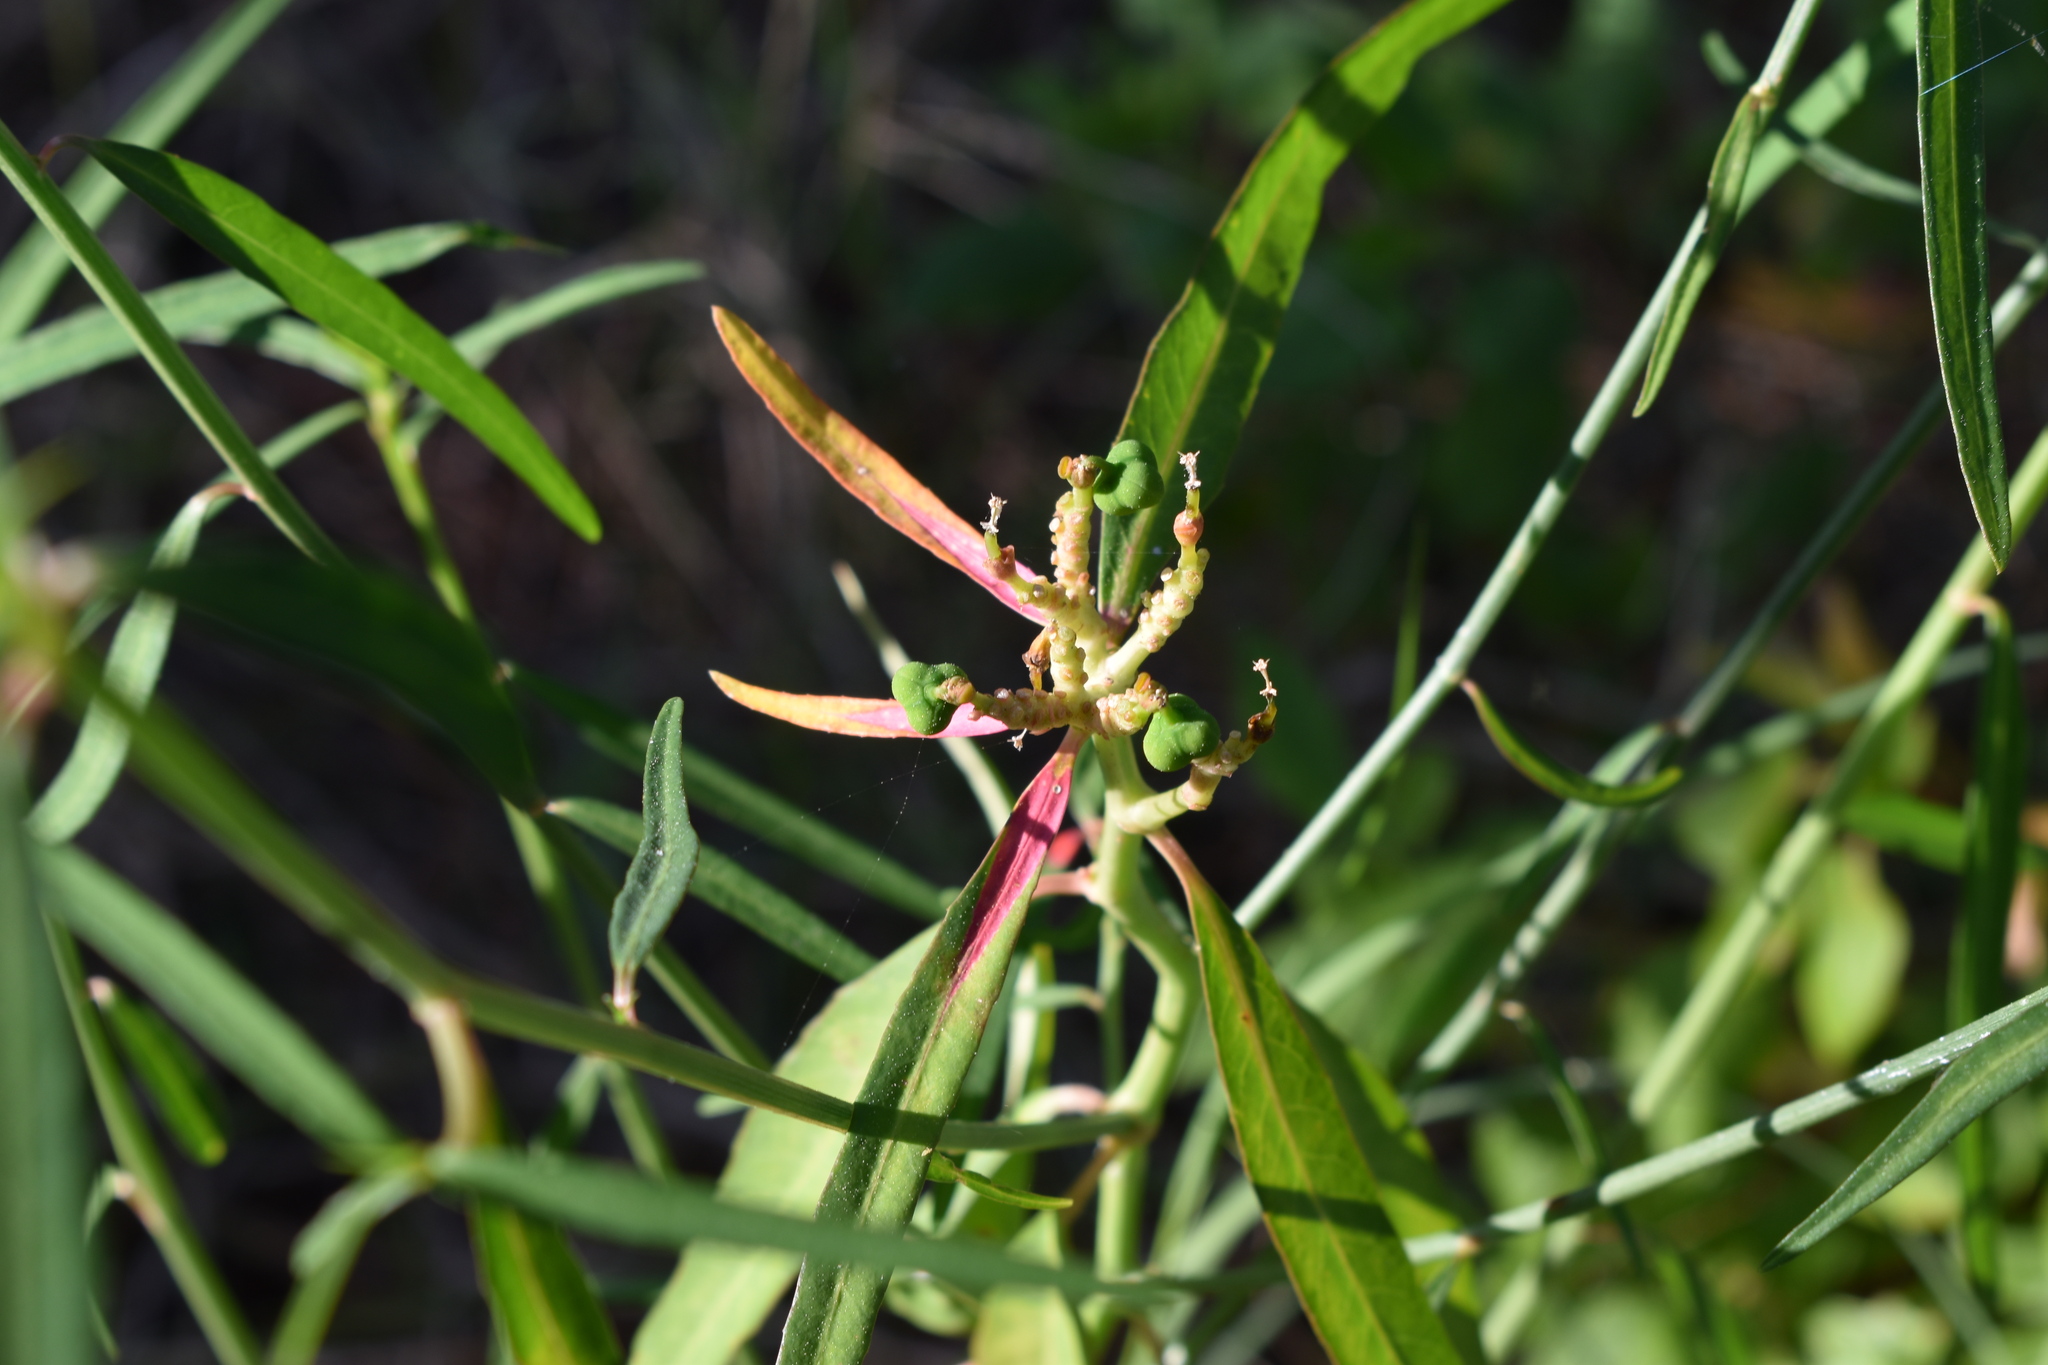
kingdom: Plantae
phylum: Tracheophyta
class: Magnoliopsida
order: Malpighiales
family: Euphorbiaceae
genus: Euphorbia
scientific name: Euphorbia heterophylla
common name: Mexican fireplant
